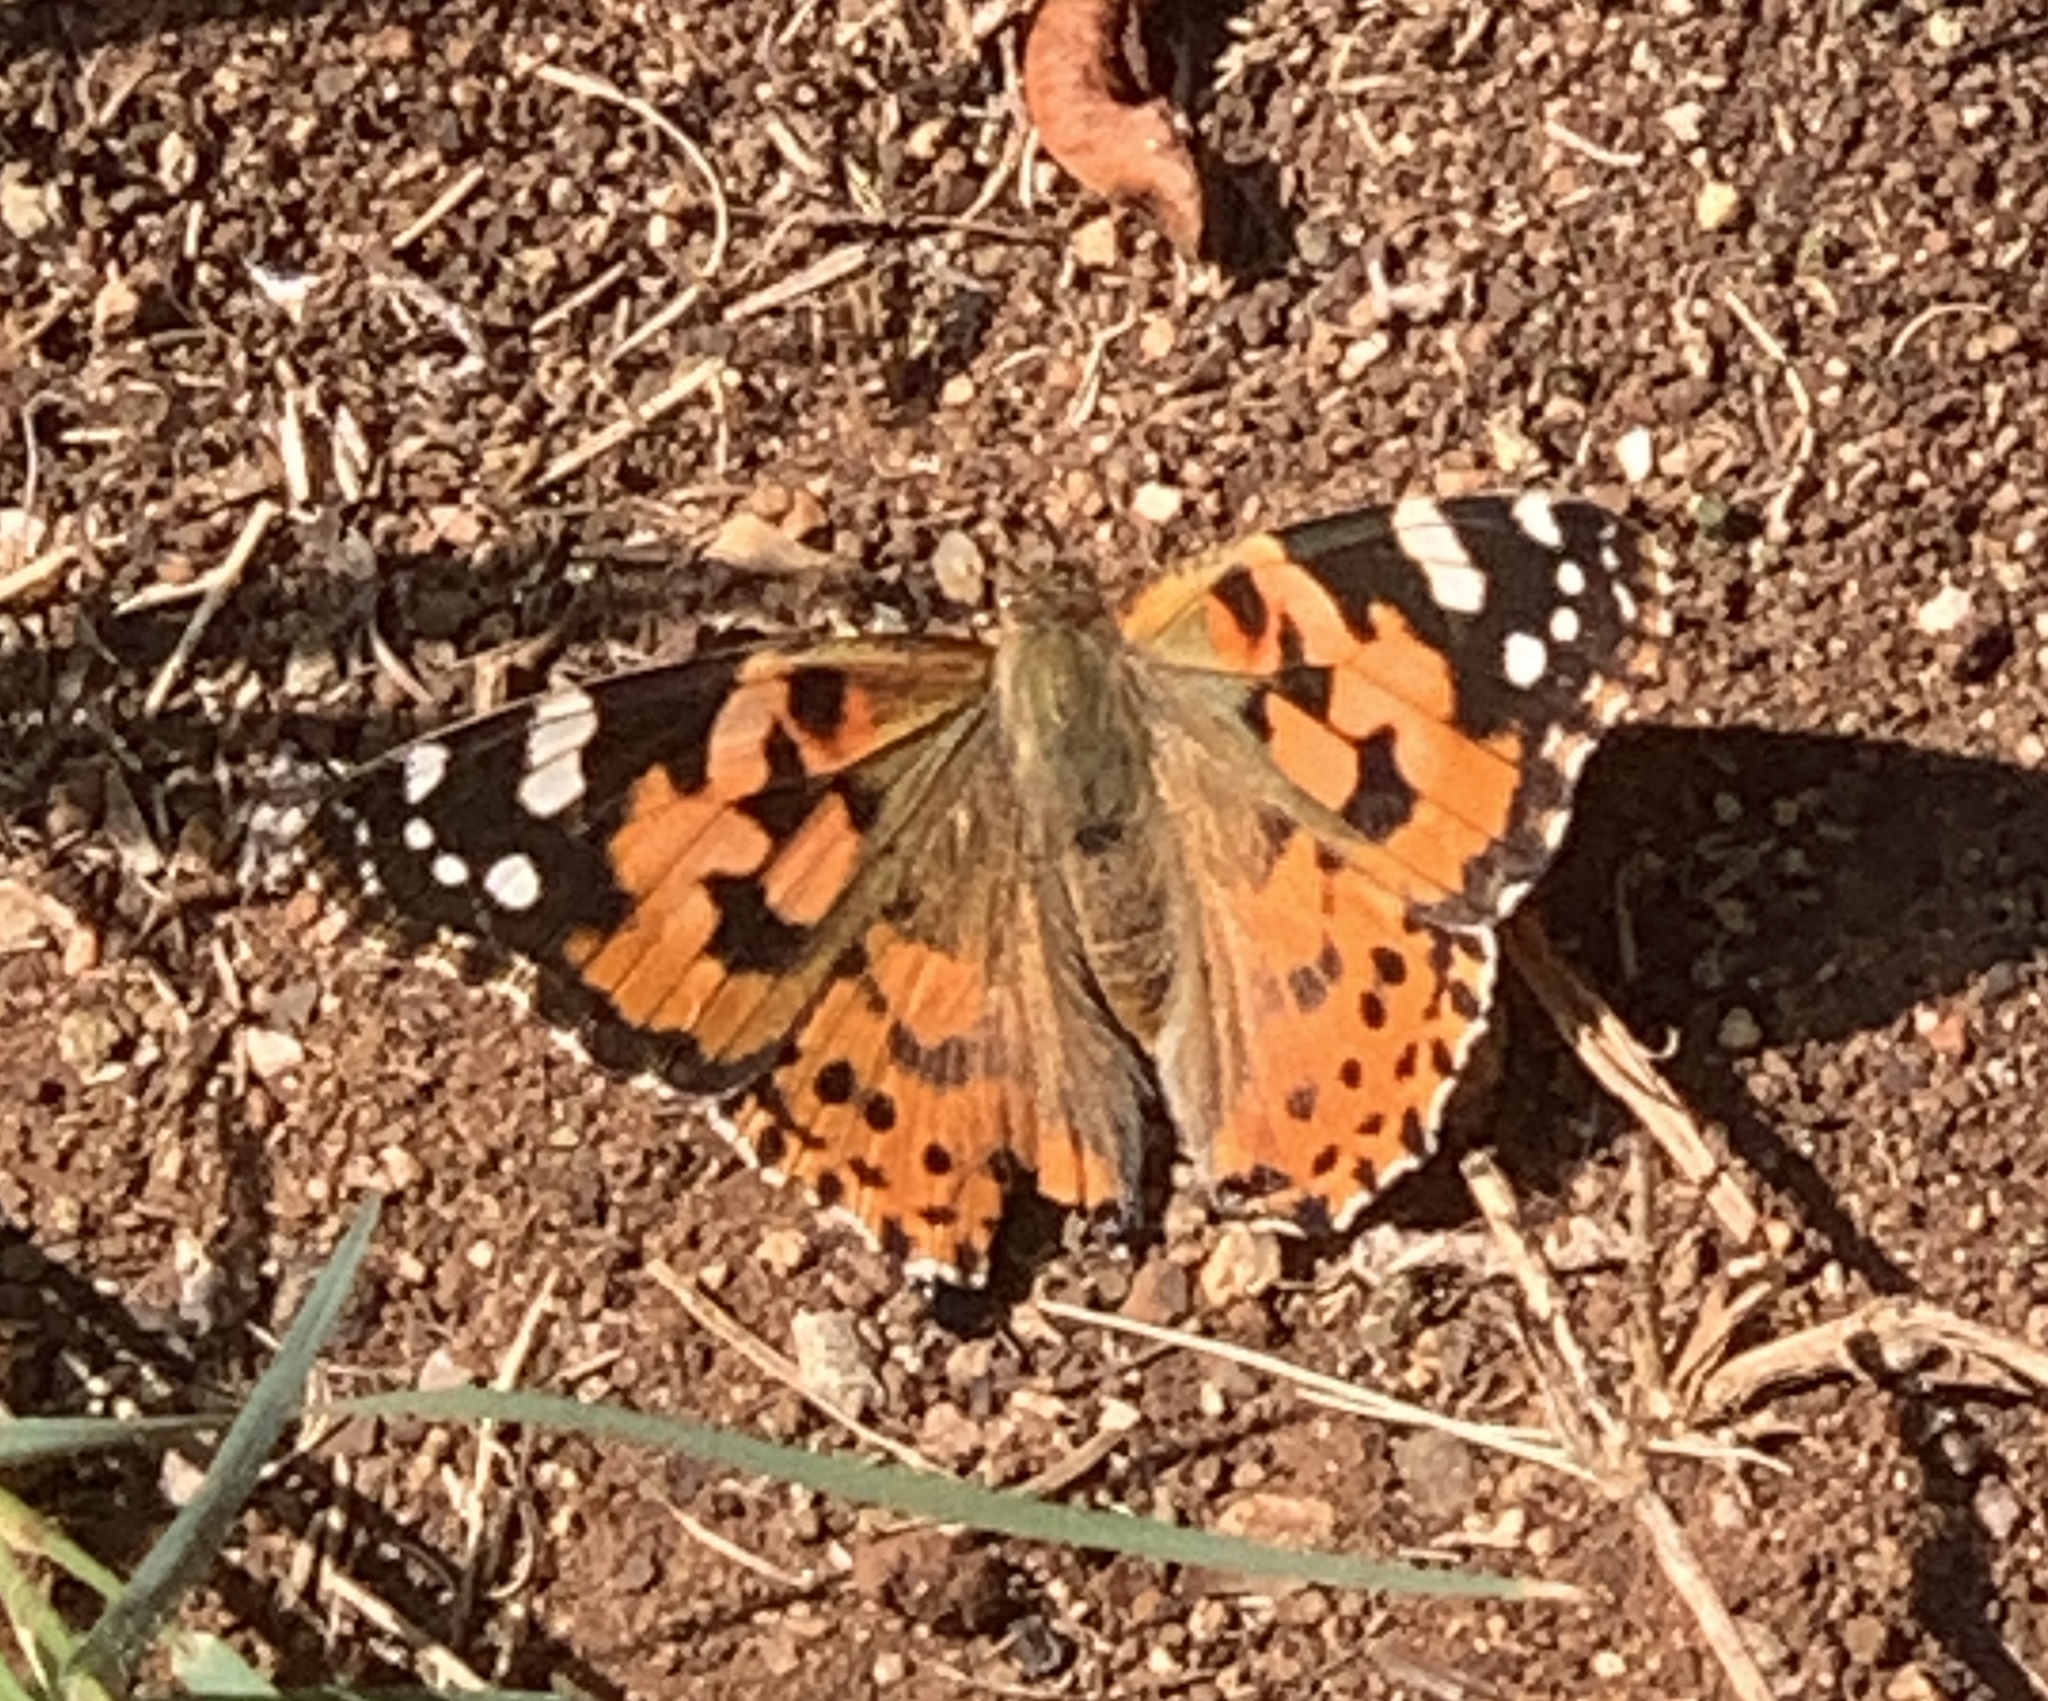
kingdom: Animalia
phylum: Arthropoda
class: Insecta
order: Lepidoptera
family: Nymphalidae
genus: Vanessa
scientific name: Vanessa cardui
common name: Painted lady
